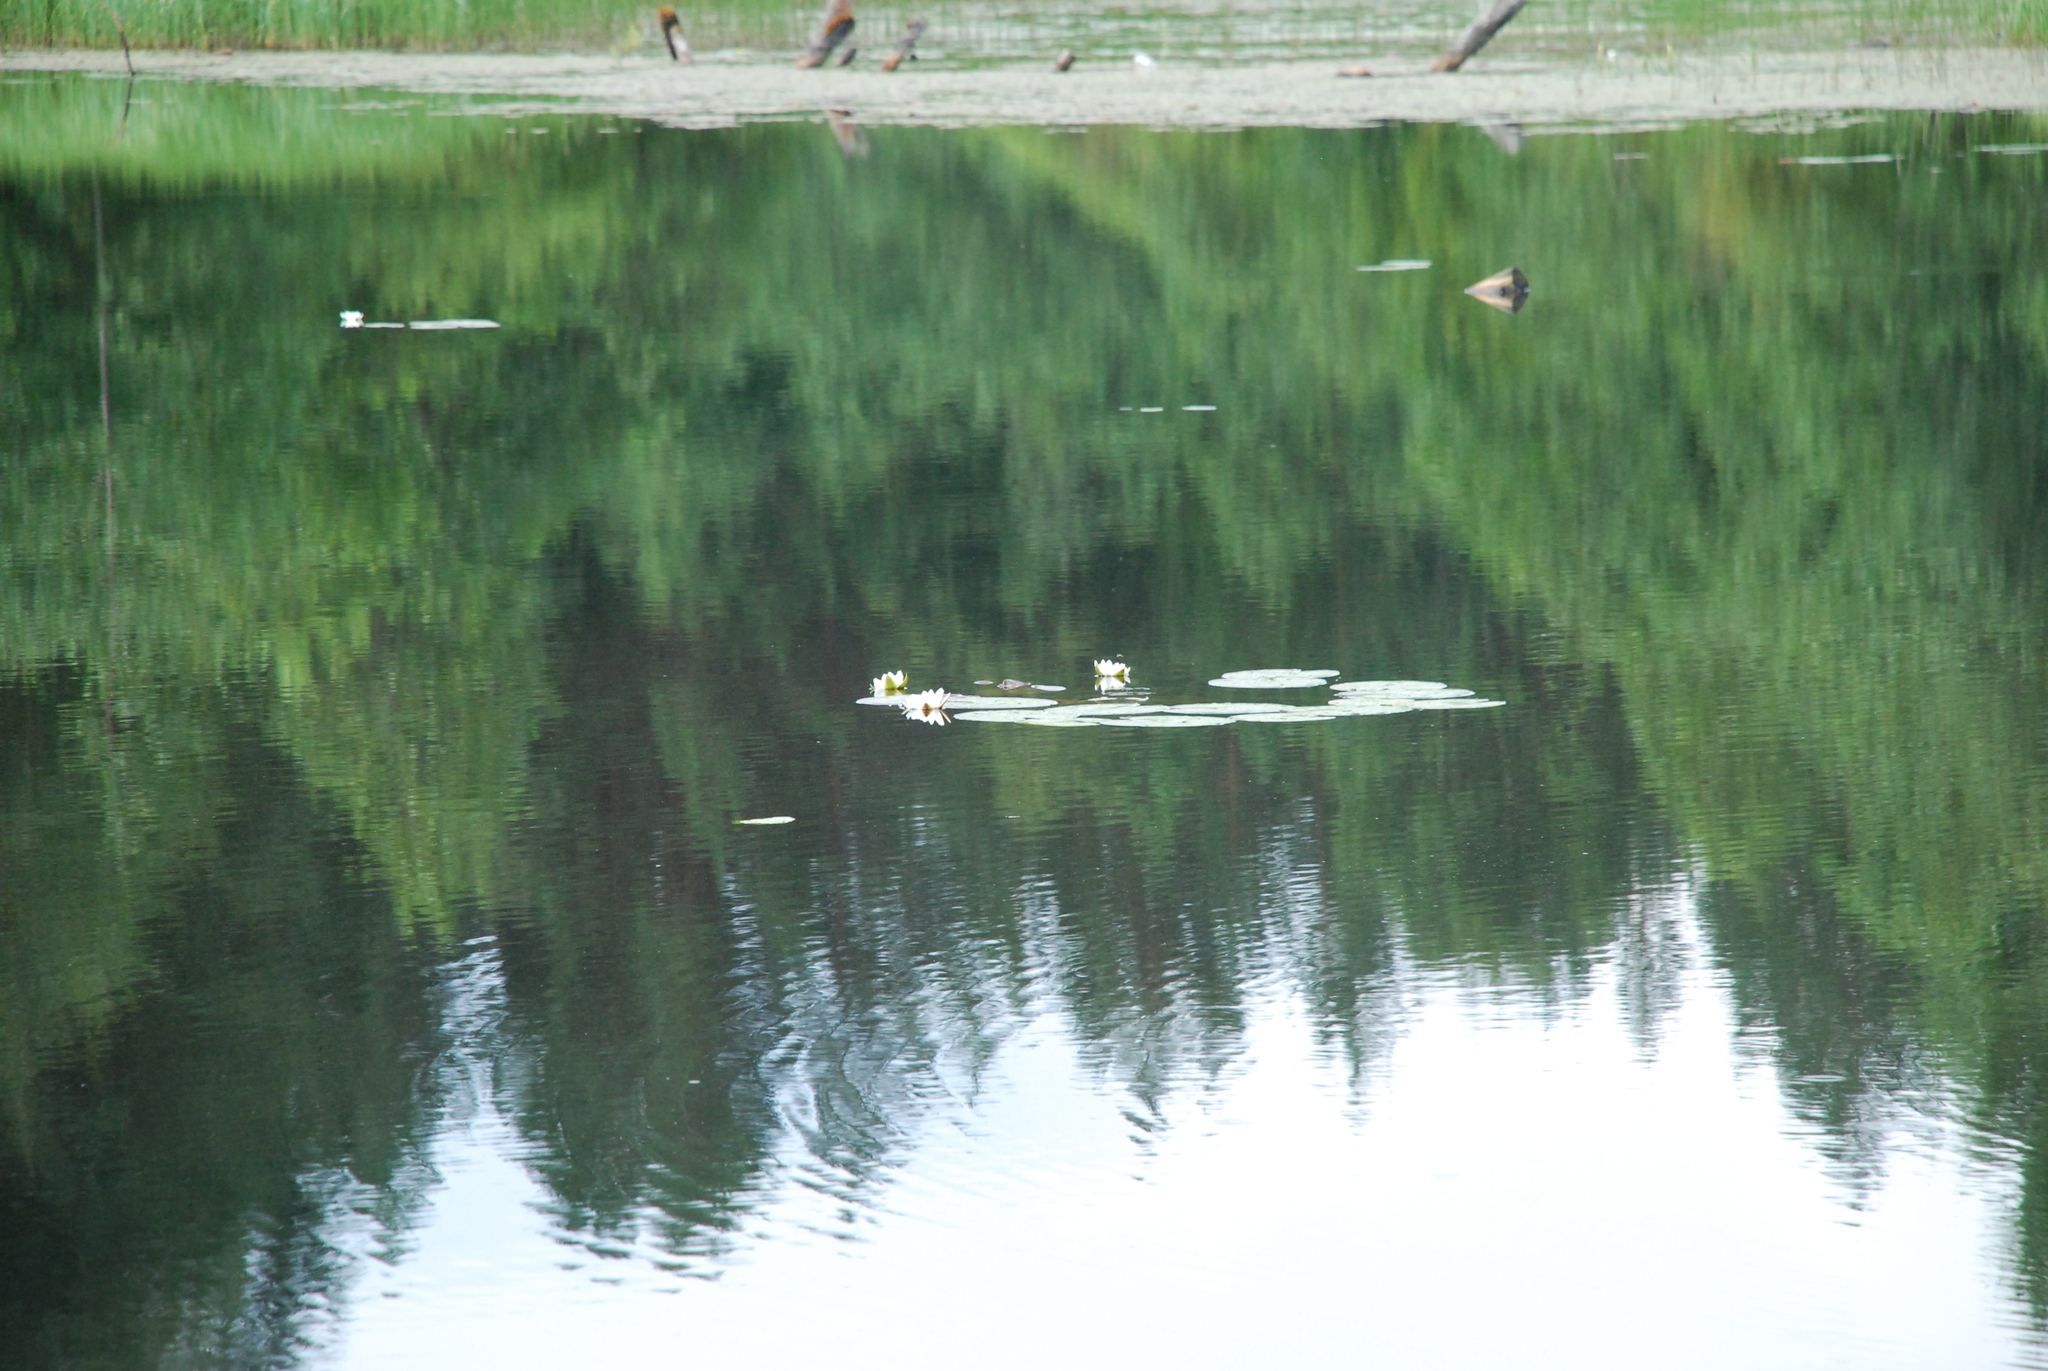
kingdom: Plantae
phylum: Tracheophyta
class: Magnoliopsida
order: Nymphaeales
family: Nymphaeaceae
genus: Nymphaea
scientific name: Nymphaea candida
